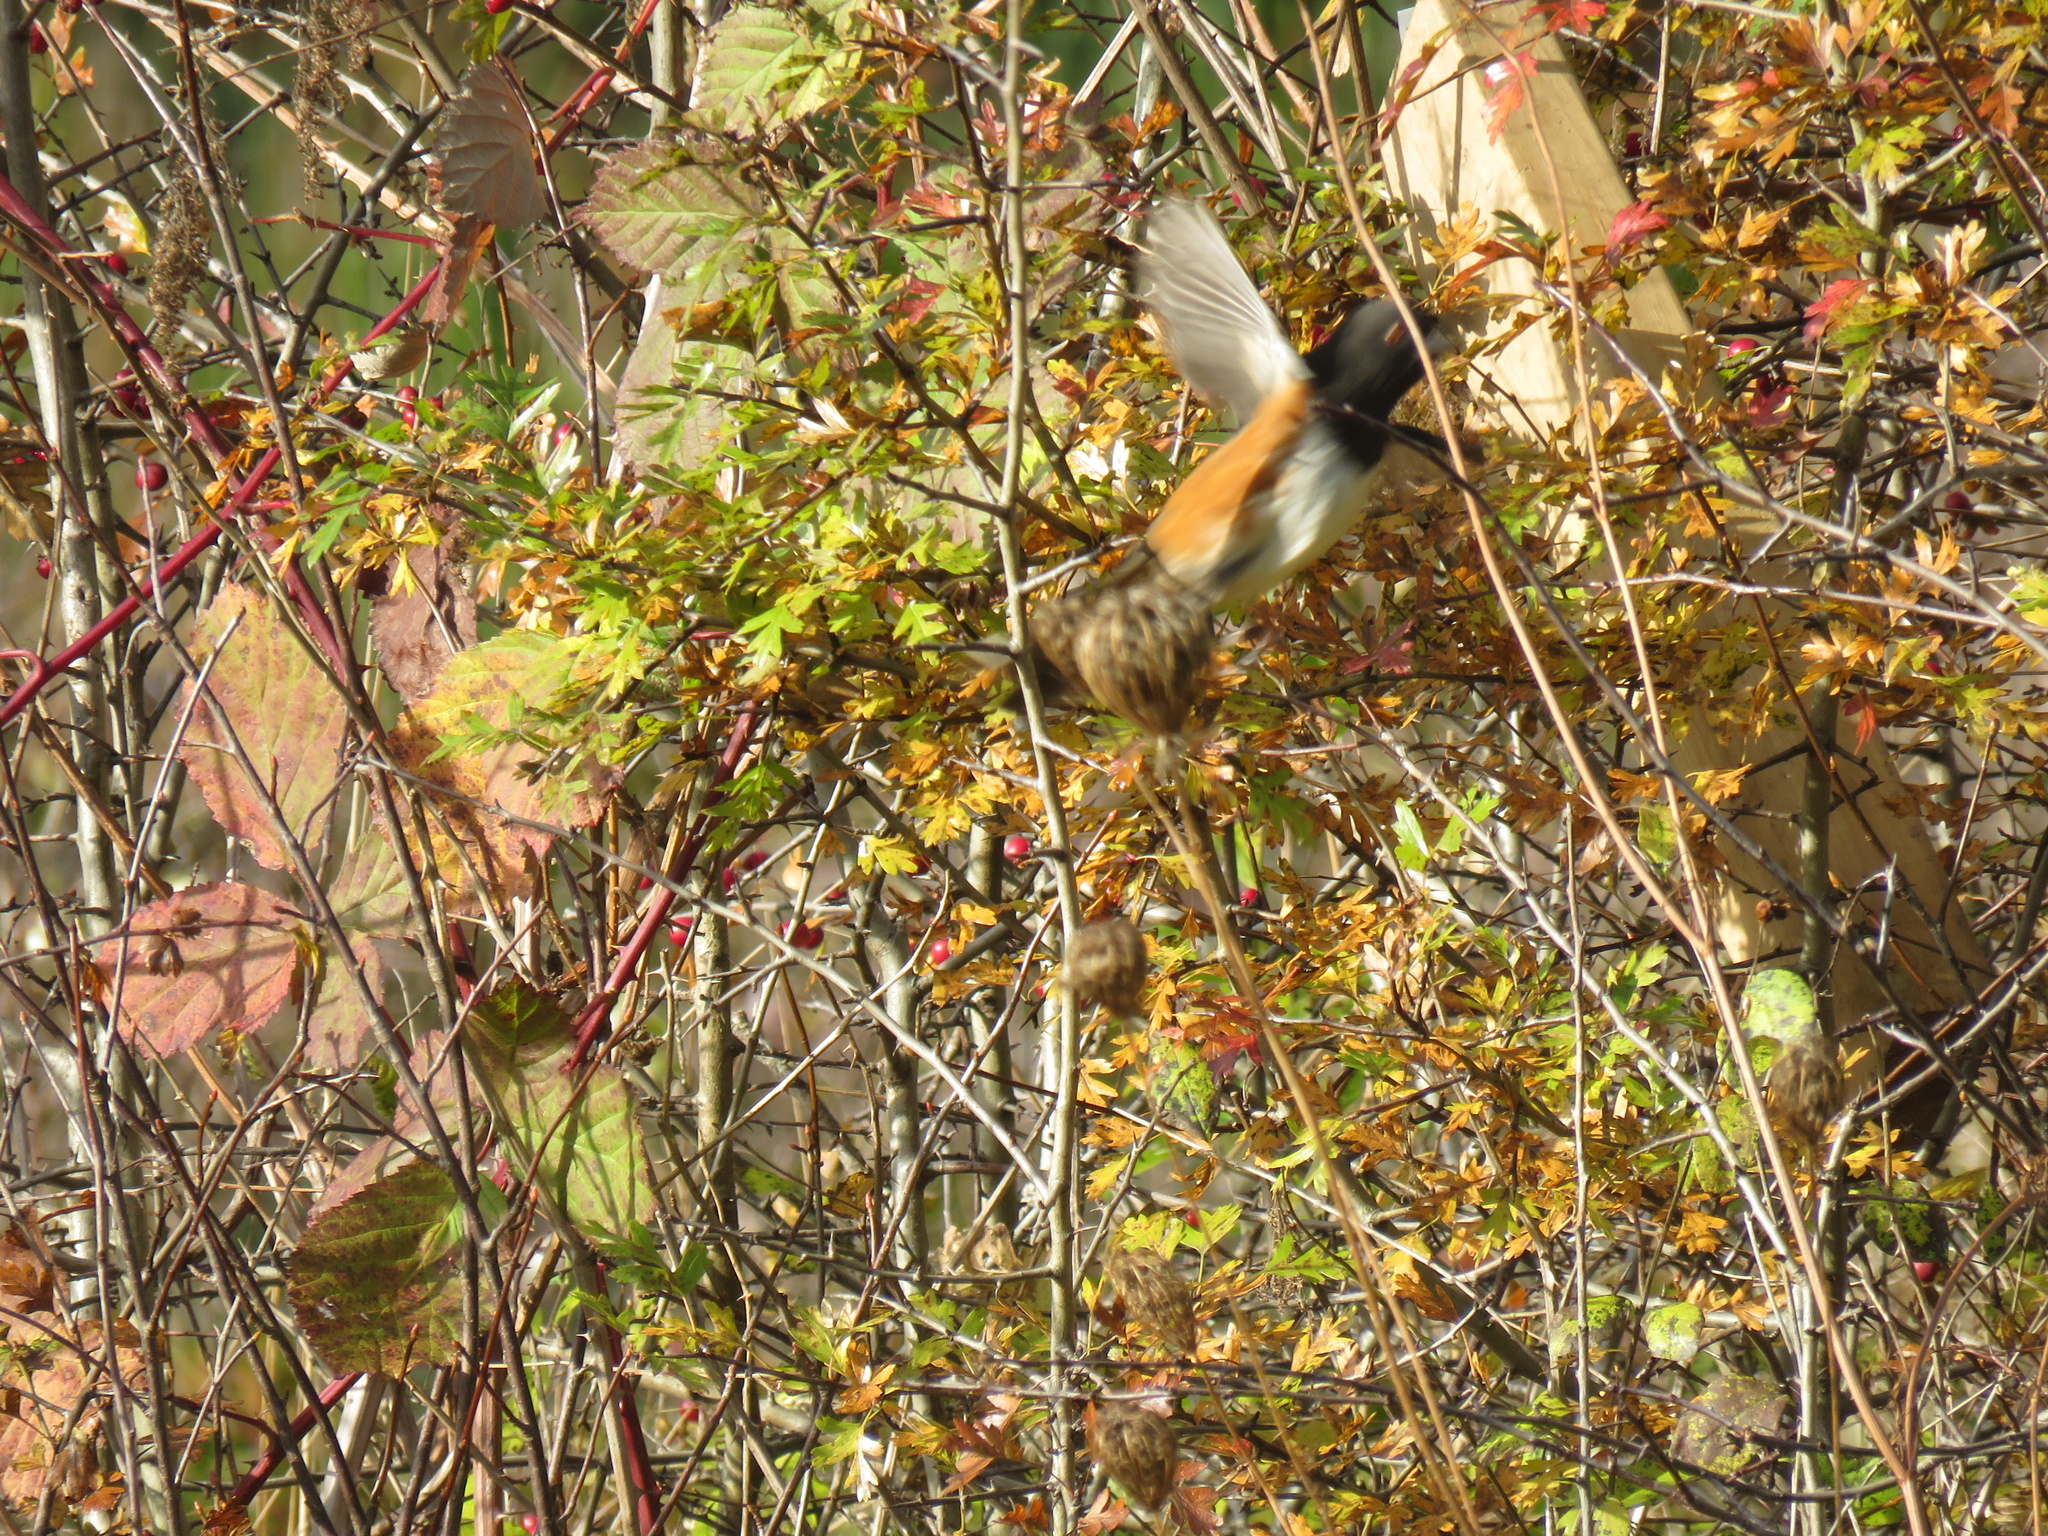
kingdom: Animalia
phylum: Chordata
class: Aves
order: Passeriformes
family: Passerellidae
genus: Pipilo
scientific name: Pipilo maculatus
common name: Spotted towhee
